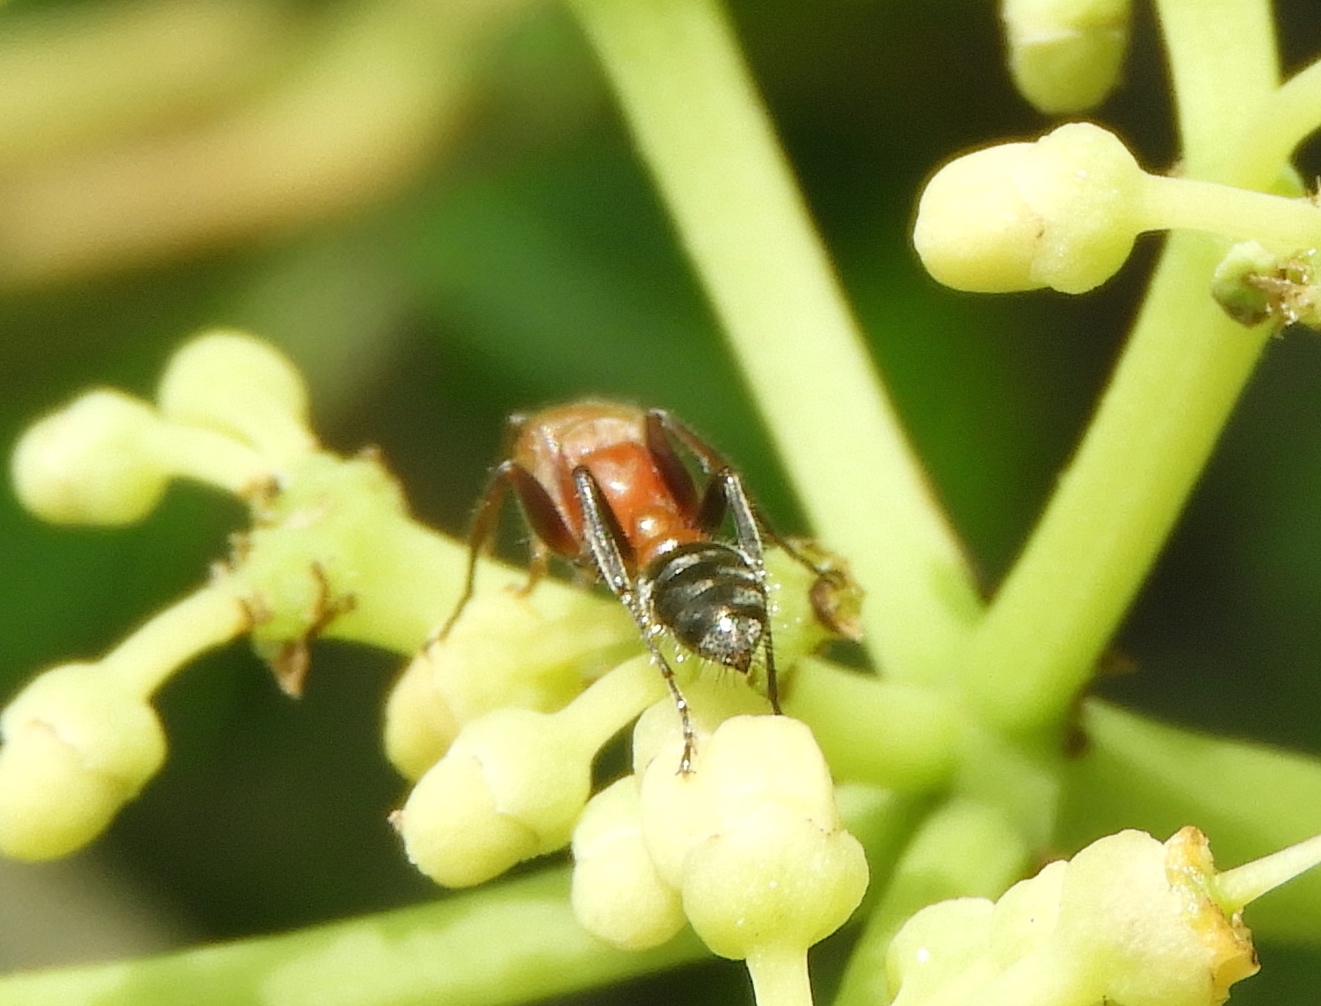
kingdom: Animalia
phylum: Arthropoda
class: Insecta
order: Hymenoptera
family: Formicidae
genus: Pseudomyrmex
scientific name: Pseudomyrmex
